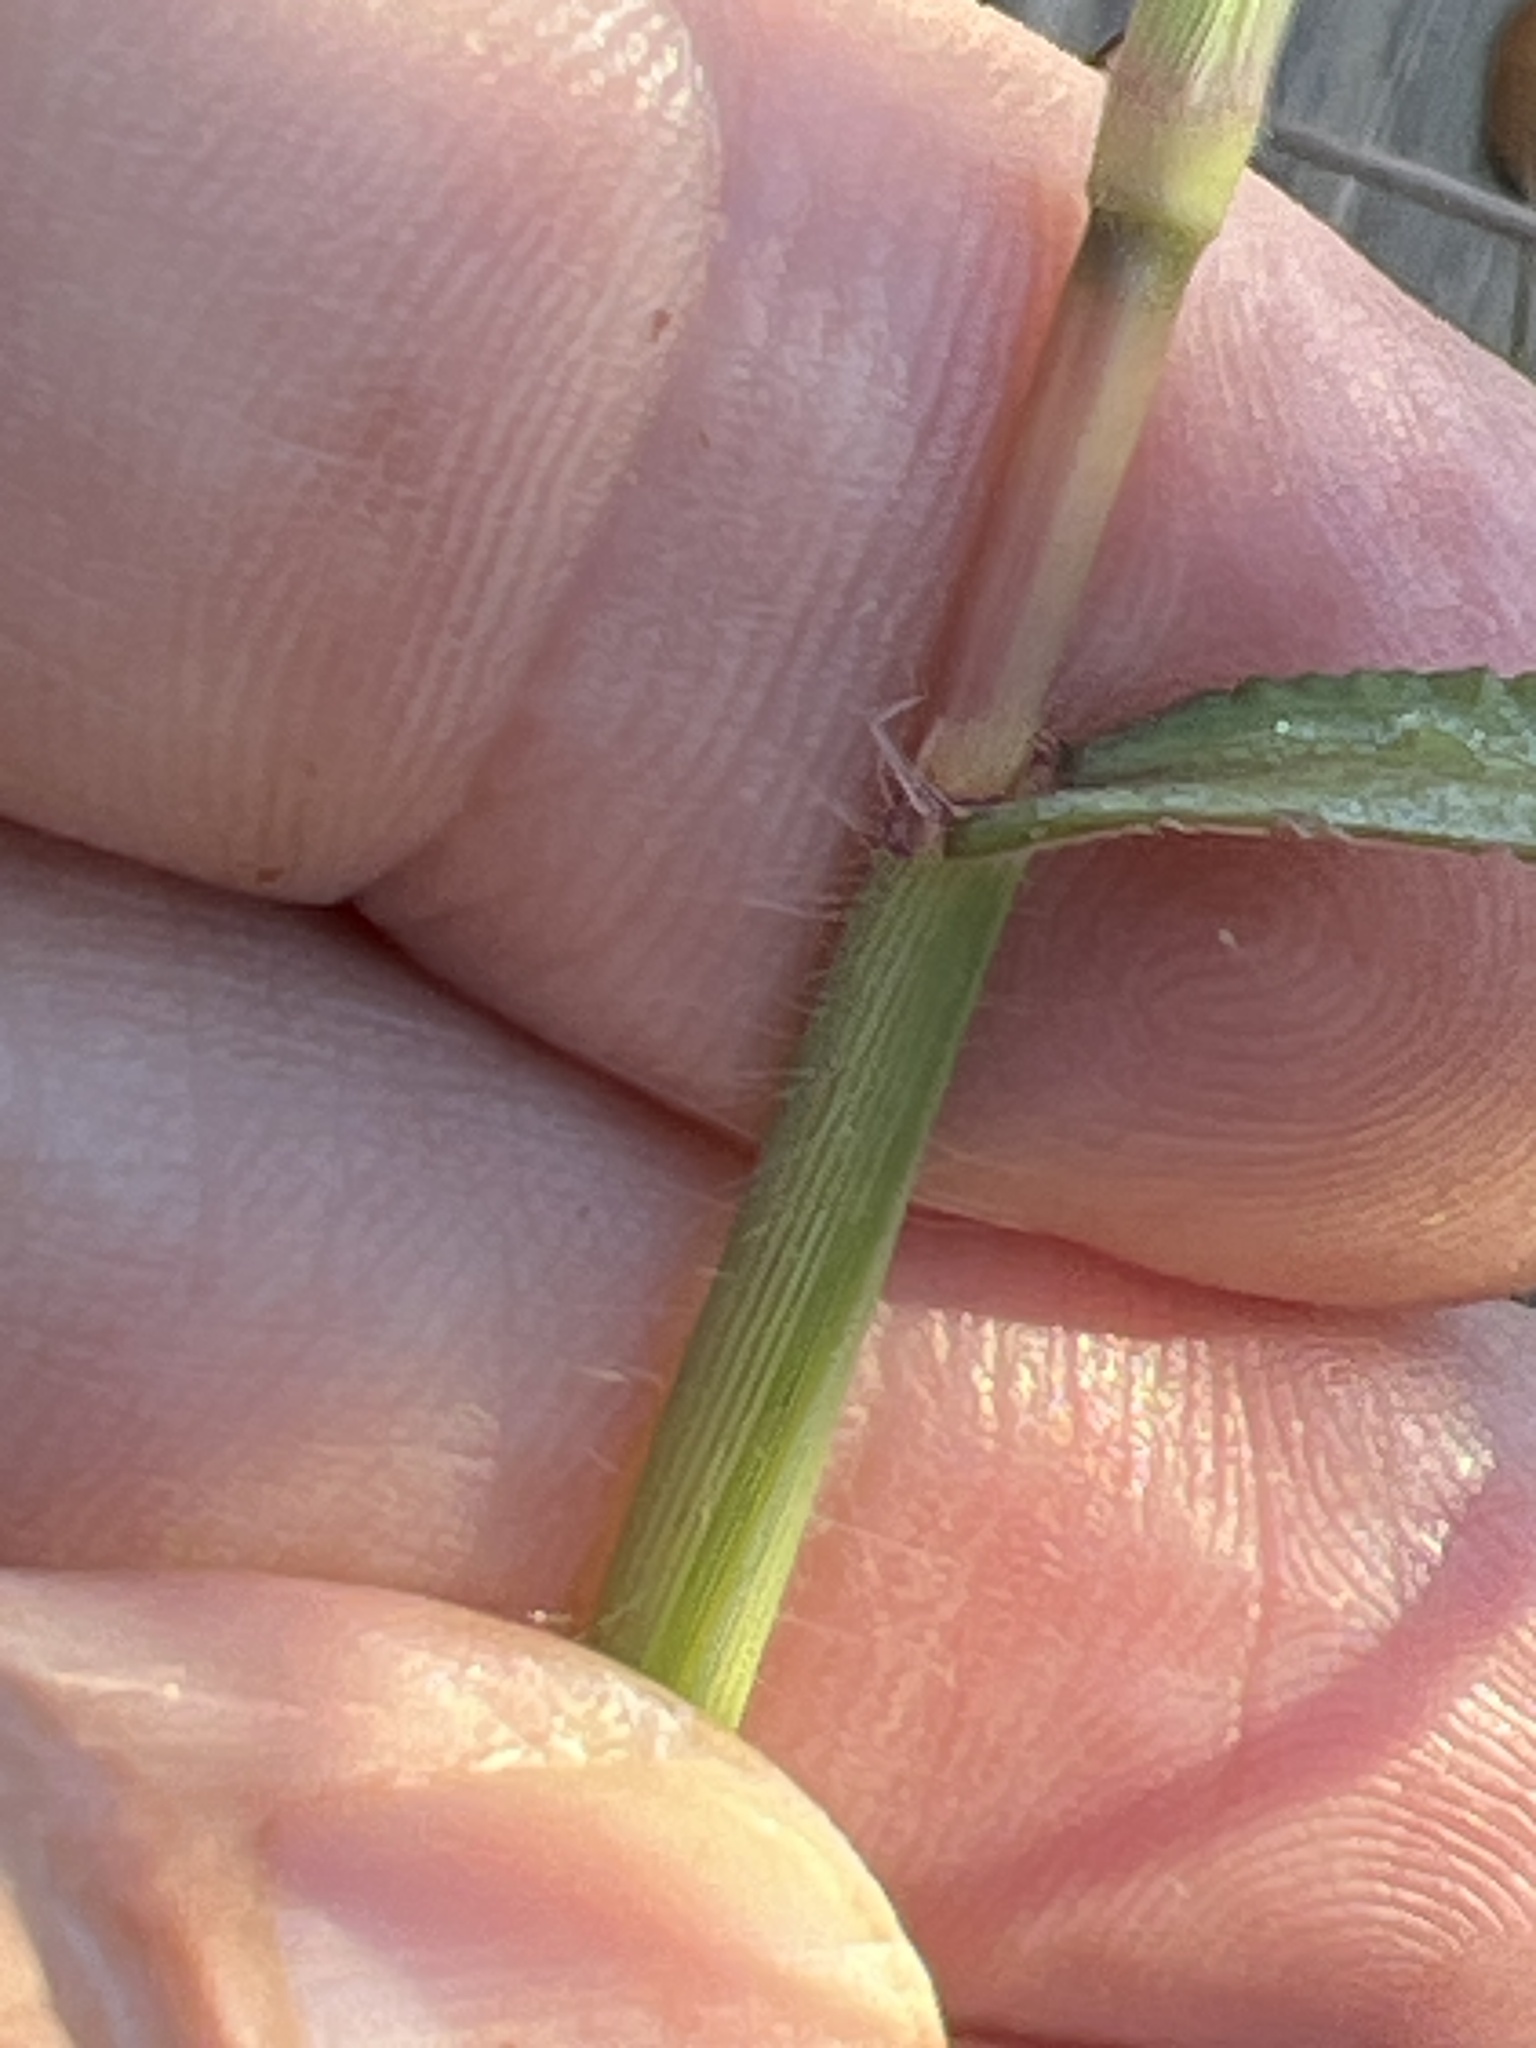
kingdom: Plantae
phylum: Tracheophyta
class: Liliopsida
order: Poales
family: Poaceae
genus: Axonopus
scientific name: Axonopus furcatus
